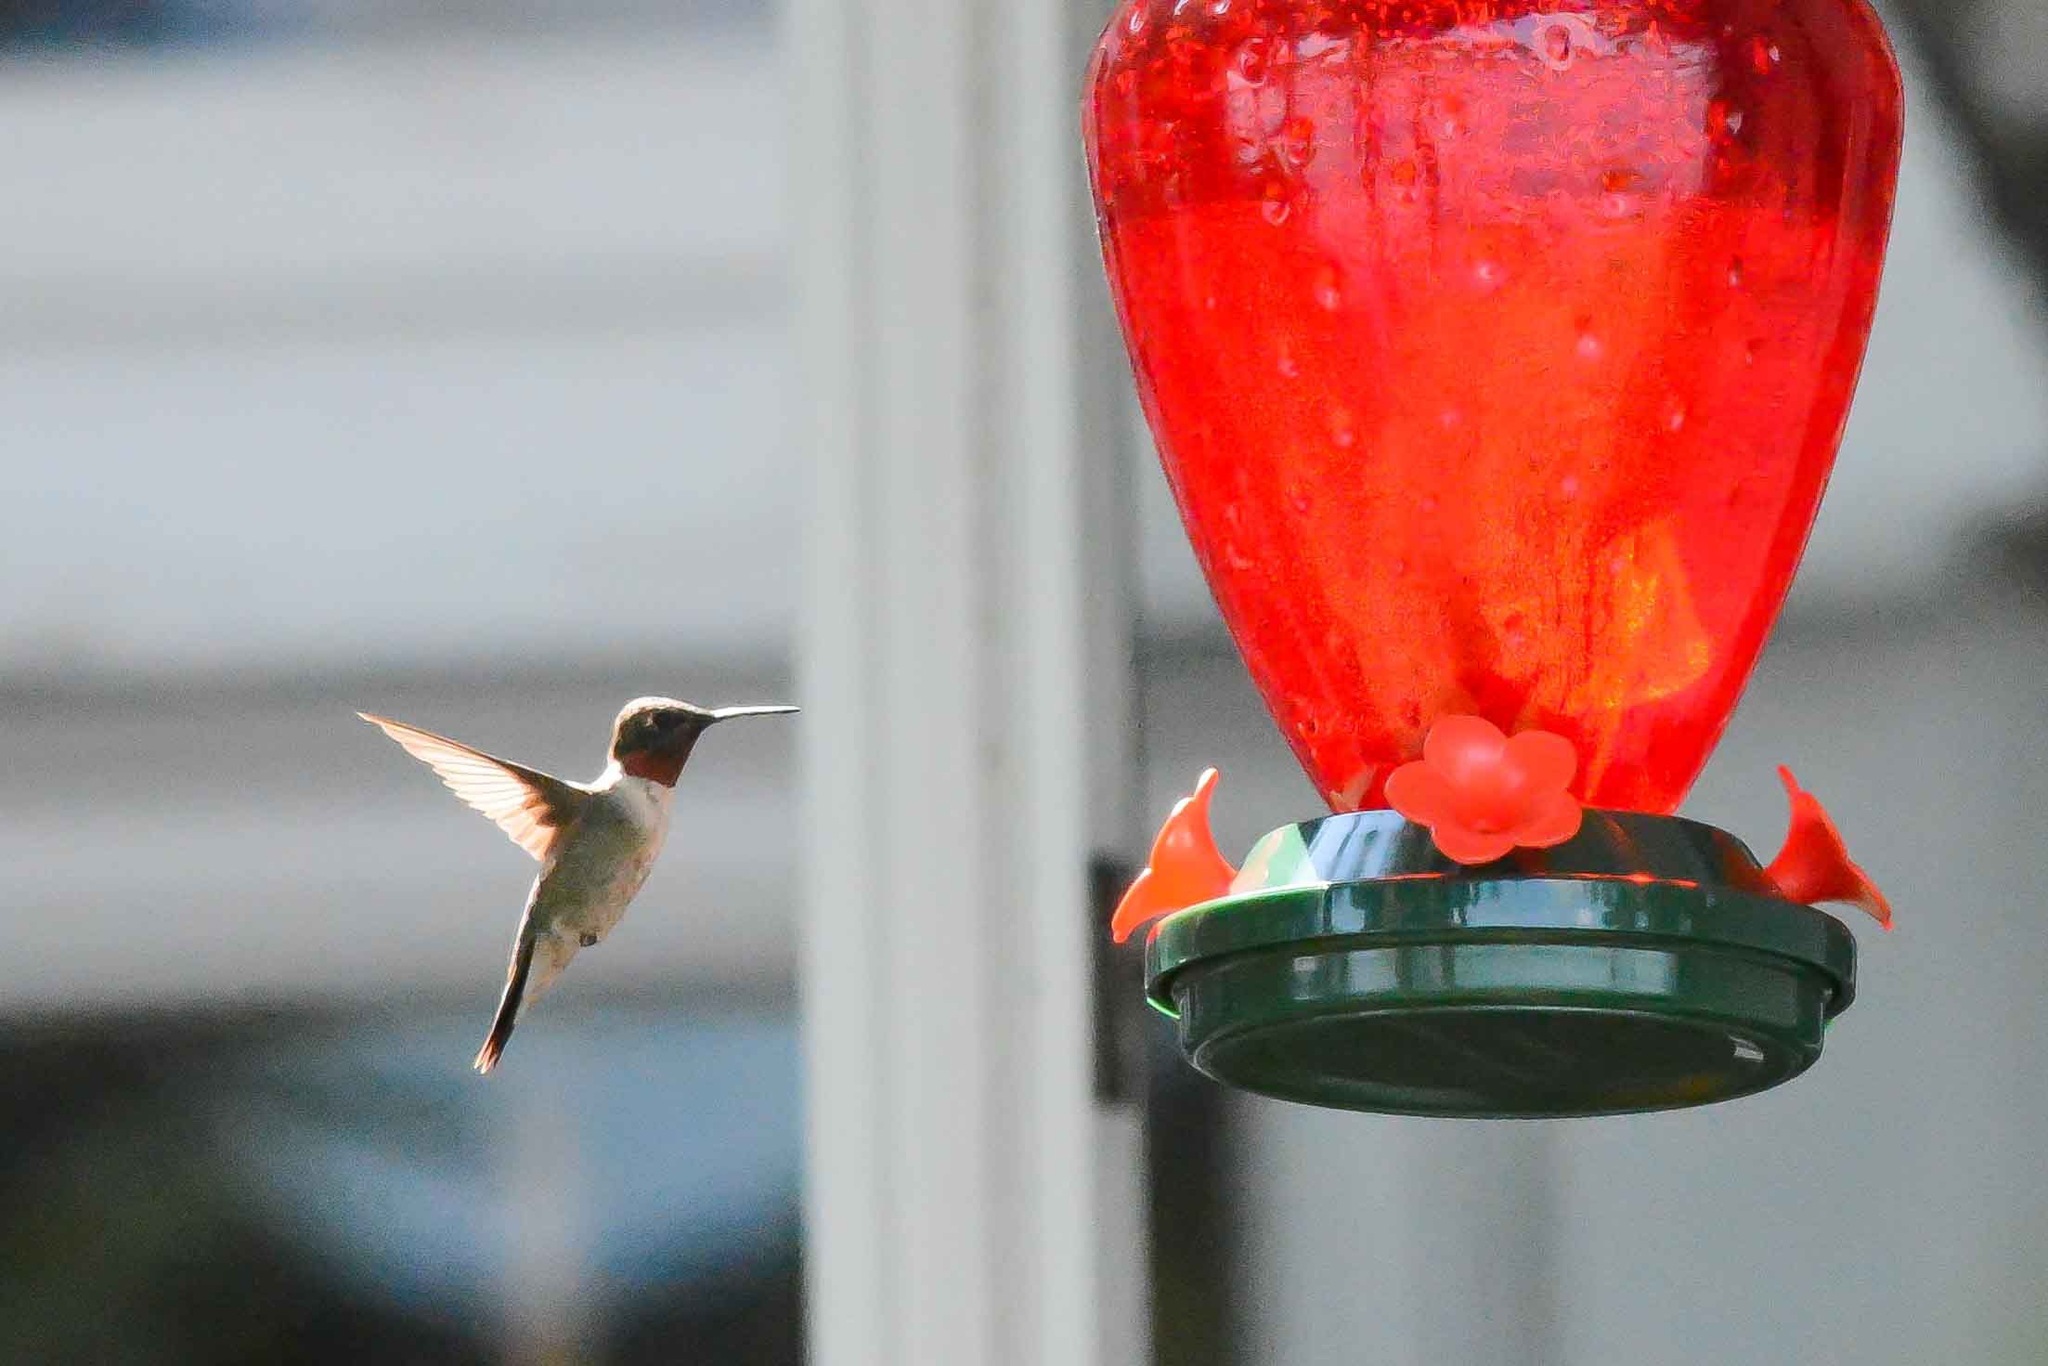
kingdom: Animalia
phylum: Chordata
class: Aves
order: Apodiformes
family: Trochilidae
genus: Archilochus
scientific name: Archilochus colubris
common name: Ruby-throated hummingbird
